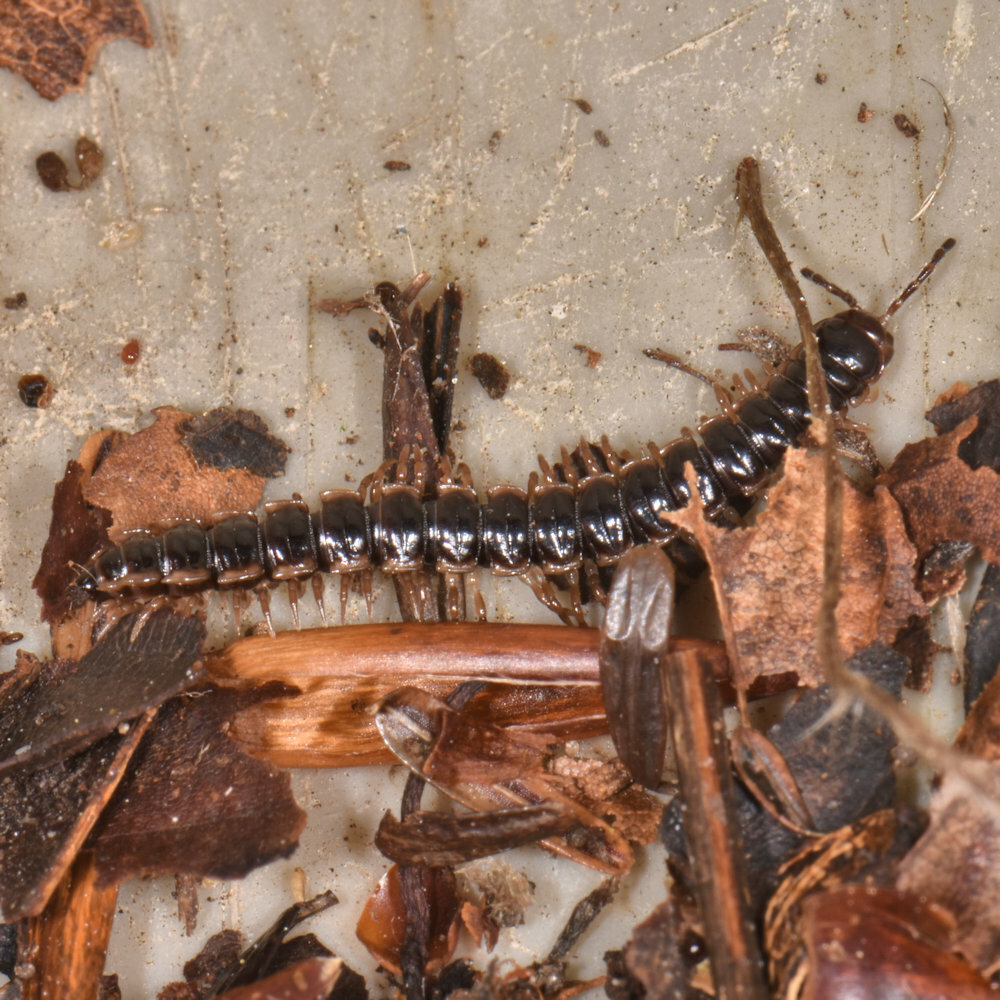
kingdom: Animalia
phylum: Arthropoda
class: Diplopoda
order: Polydesmida
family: Paradoxosomatidae
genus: Oxidus
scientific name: Oxidus gracilis
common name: Greenhouse millipede
